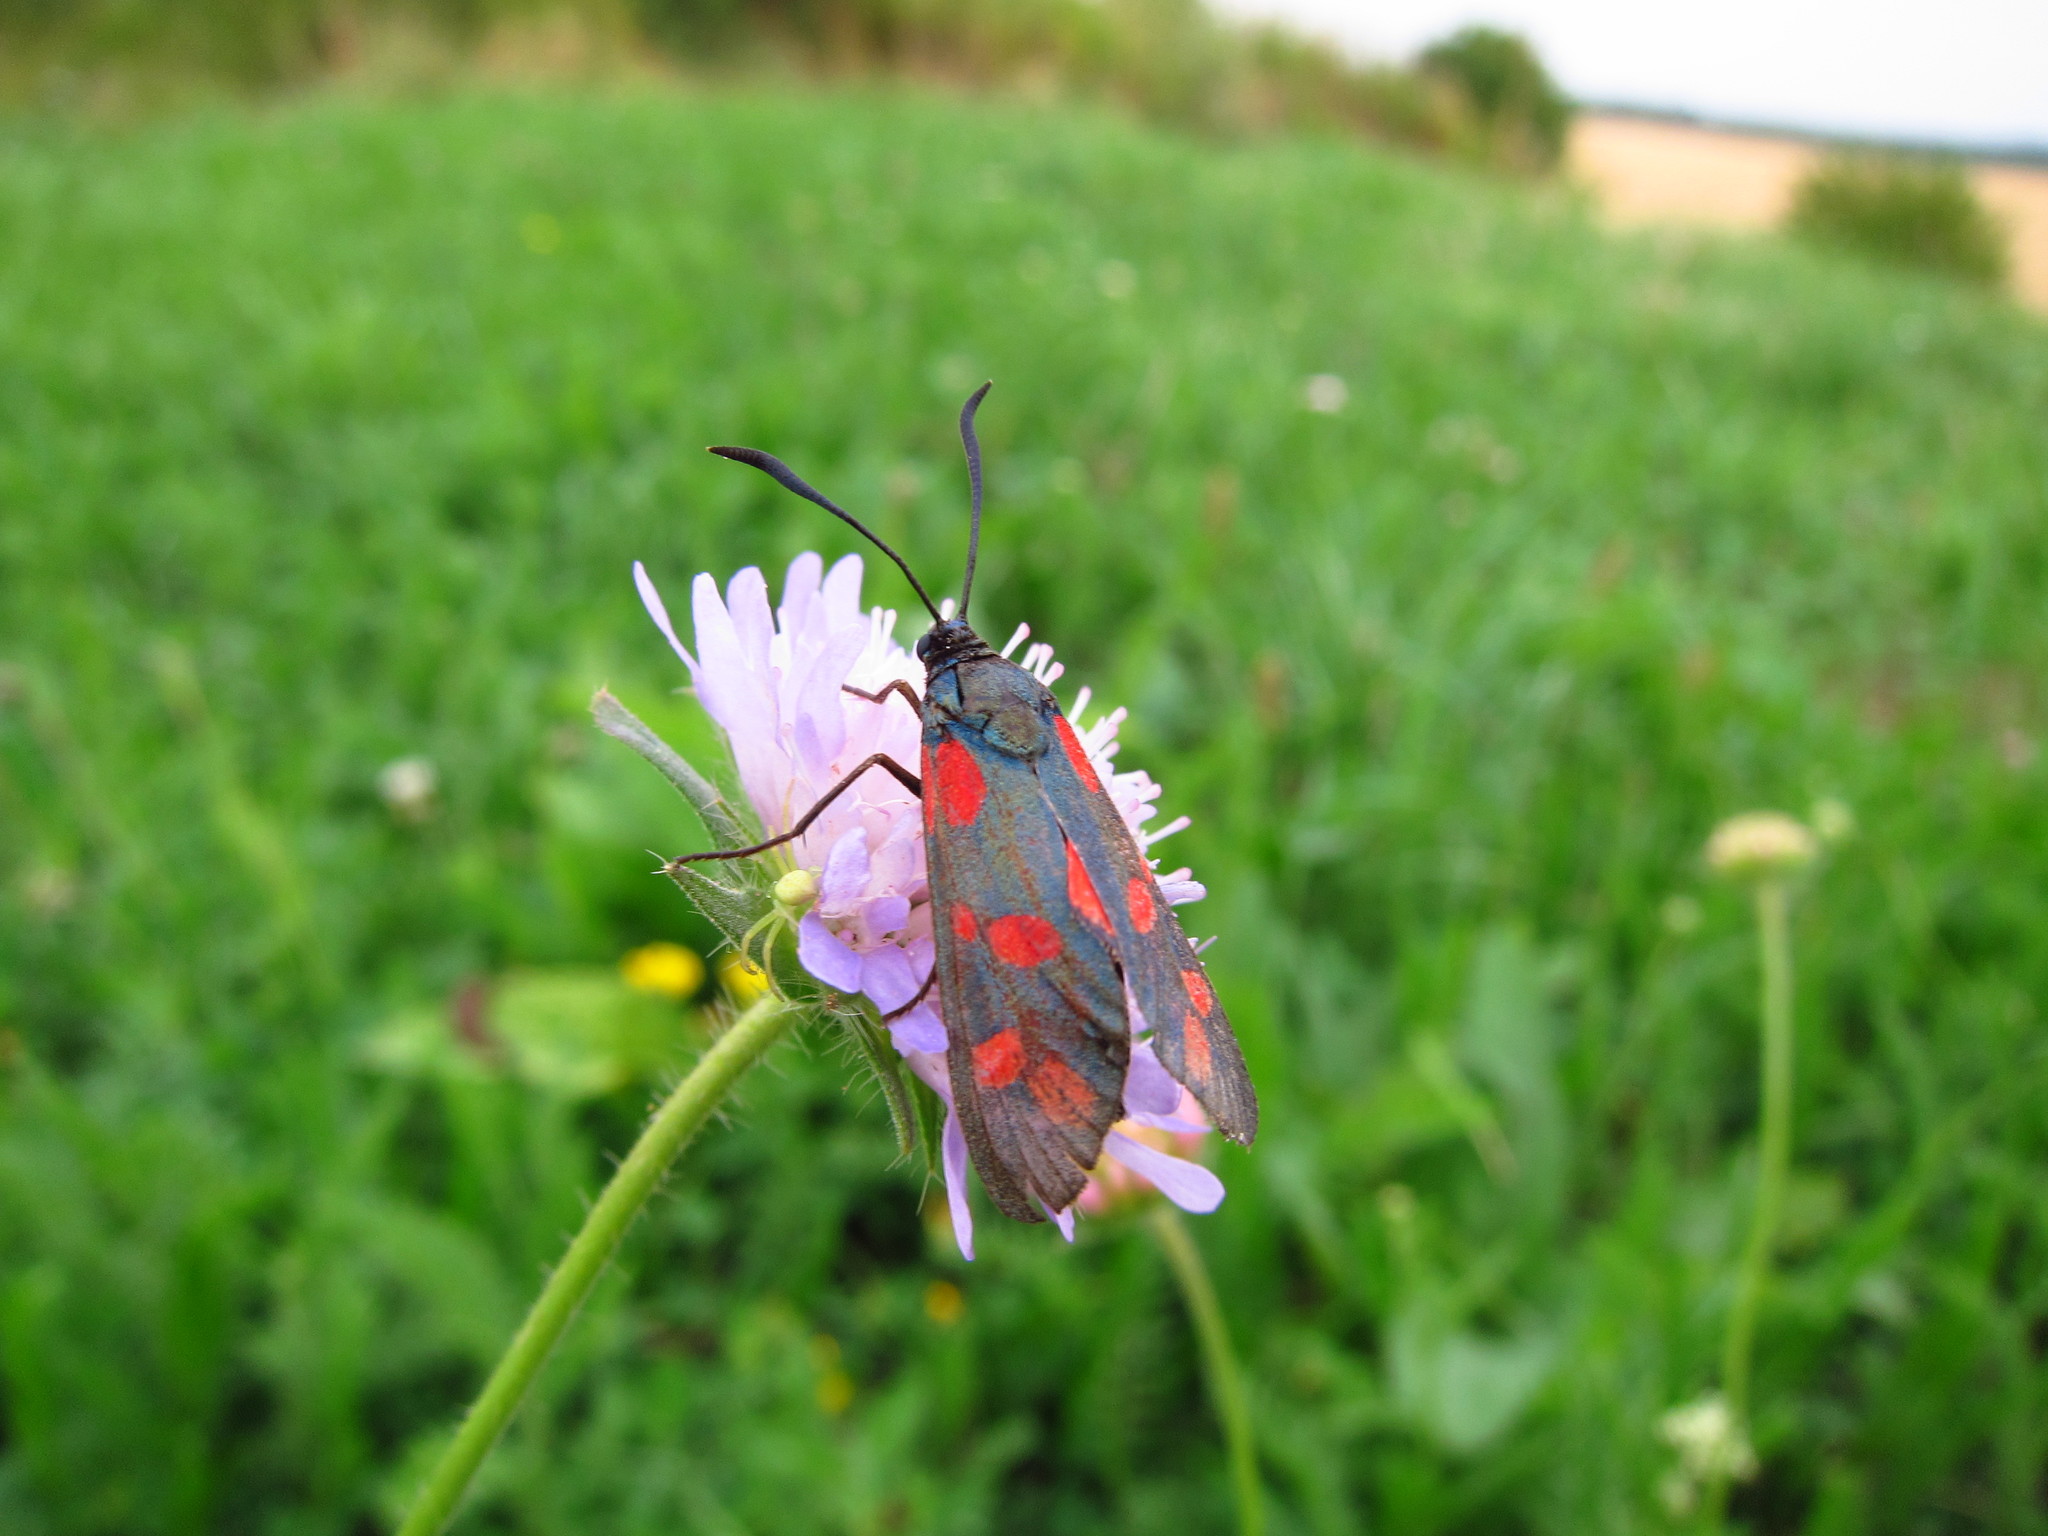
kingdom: Animalia
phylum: Arthropoda
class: Insecta
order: Lepidoptera
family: Zygaenidae
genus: Zygaena
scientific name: Zygaena filipendulae
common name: Six-spot burnet
